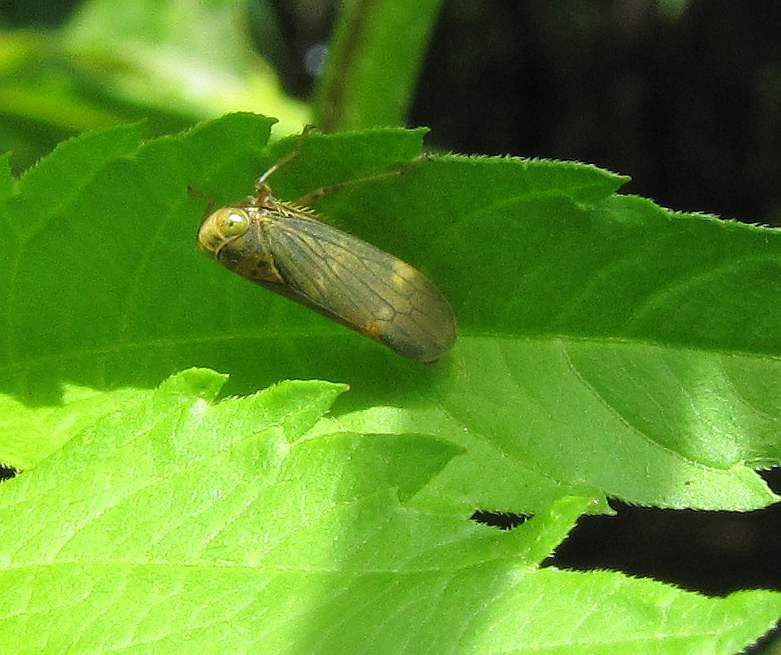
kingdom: Animalia
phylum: Arthropoda
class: Insecta
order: Hemiptera
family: Cicadellidae
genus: Jikradia
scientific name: Jikradia olitoria
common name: Coppery leafhopper
